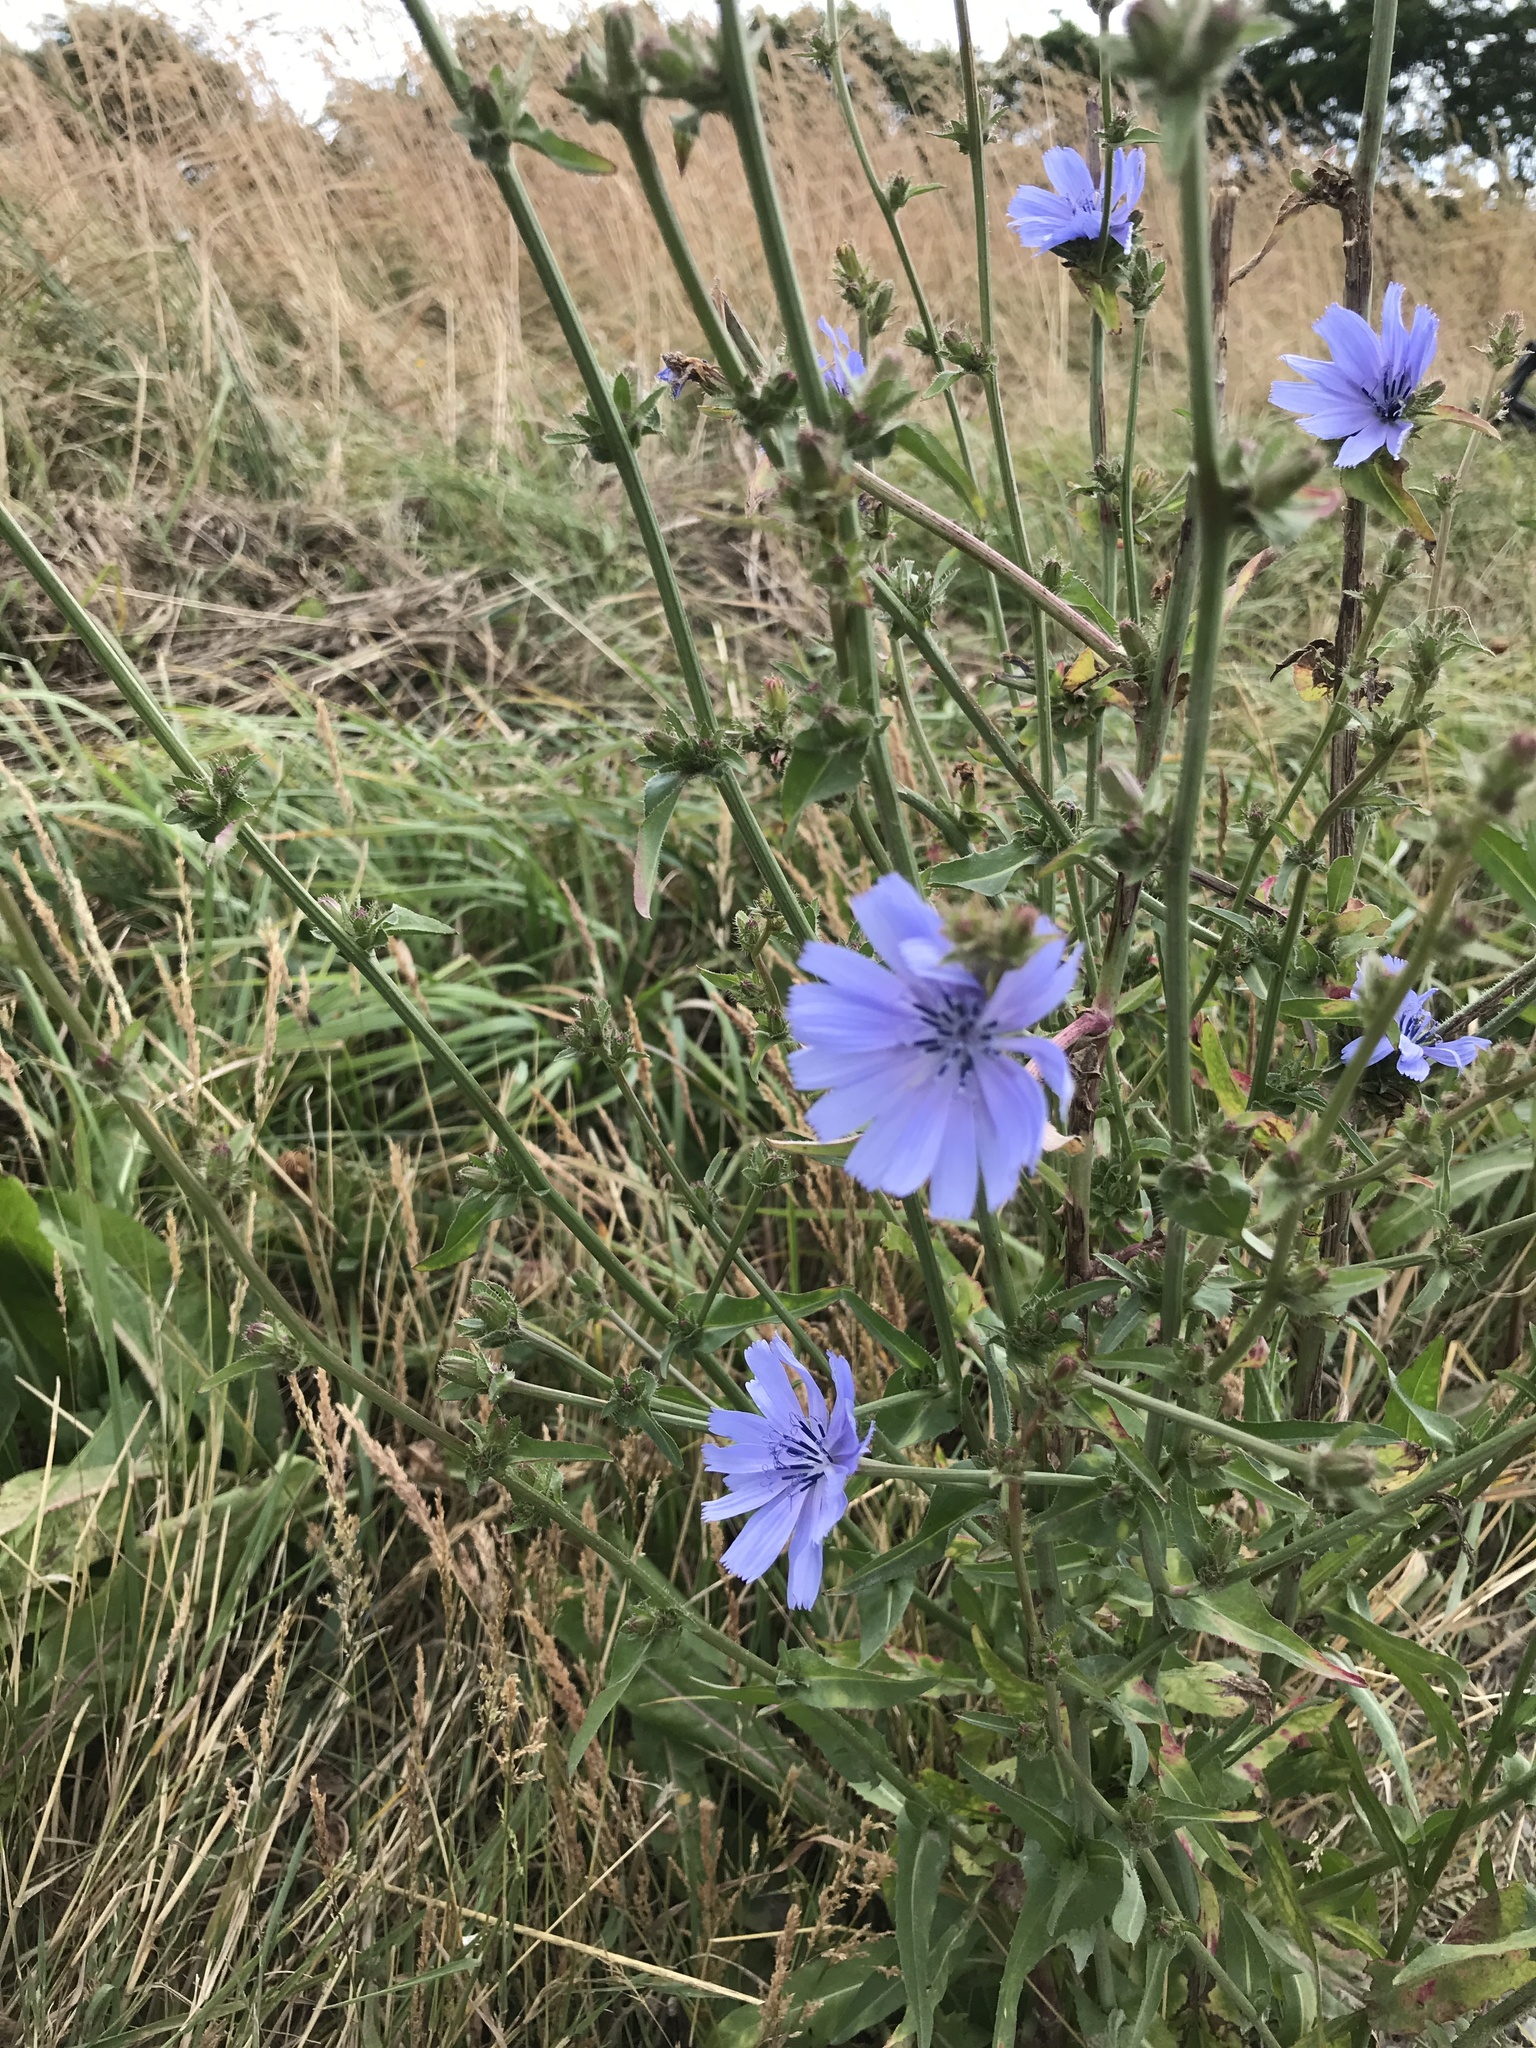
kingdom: Plantae
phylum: Tracheophyta
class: Magnoliopsida
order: Asterales
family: Asteraceae
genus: Cichorium
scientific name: Cichorium intybus
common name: Chicory
